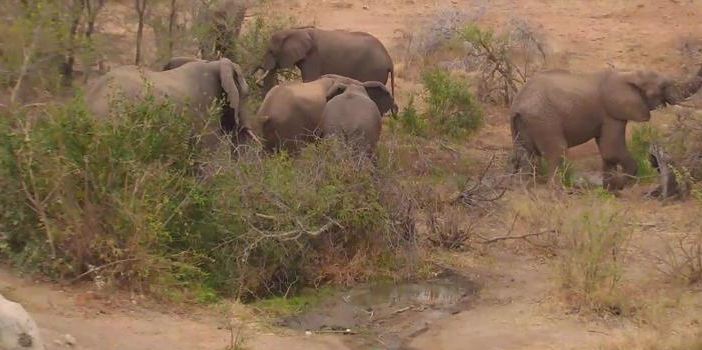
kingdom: Animalia
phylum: Chordata
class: Mammalia
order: Proboscidea
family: Elephantidae
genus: Loxodonta
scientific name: Loxodonta africana
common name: African elephant
